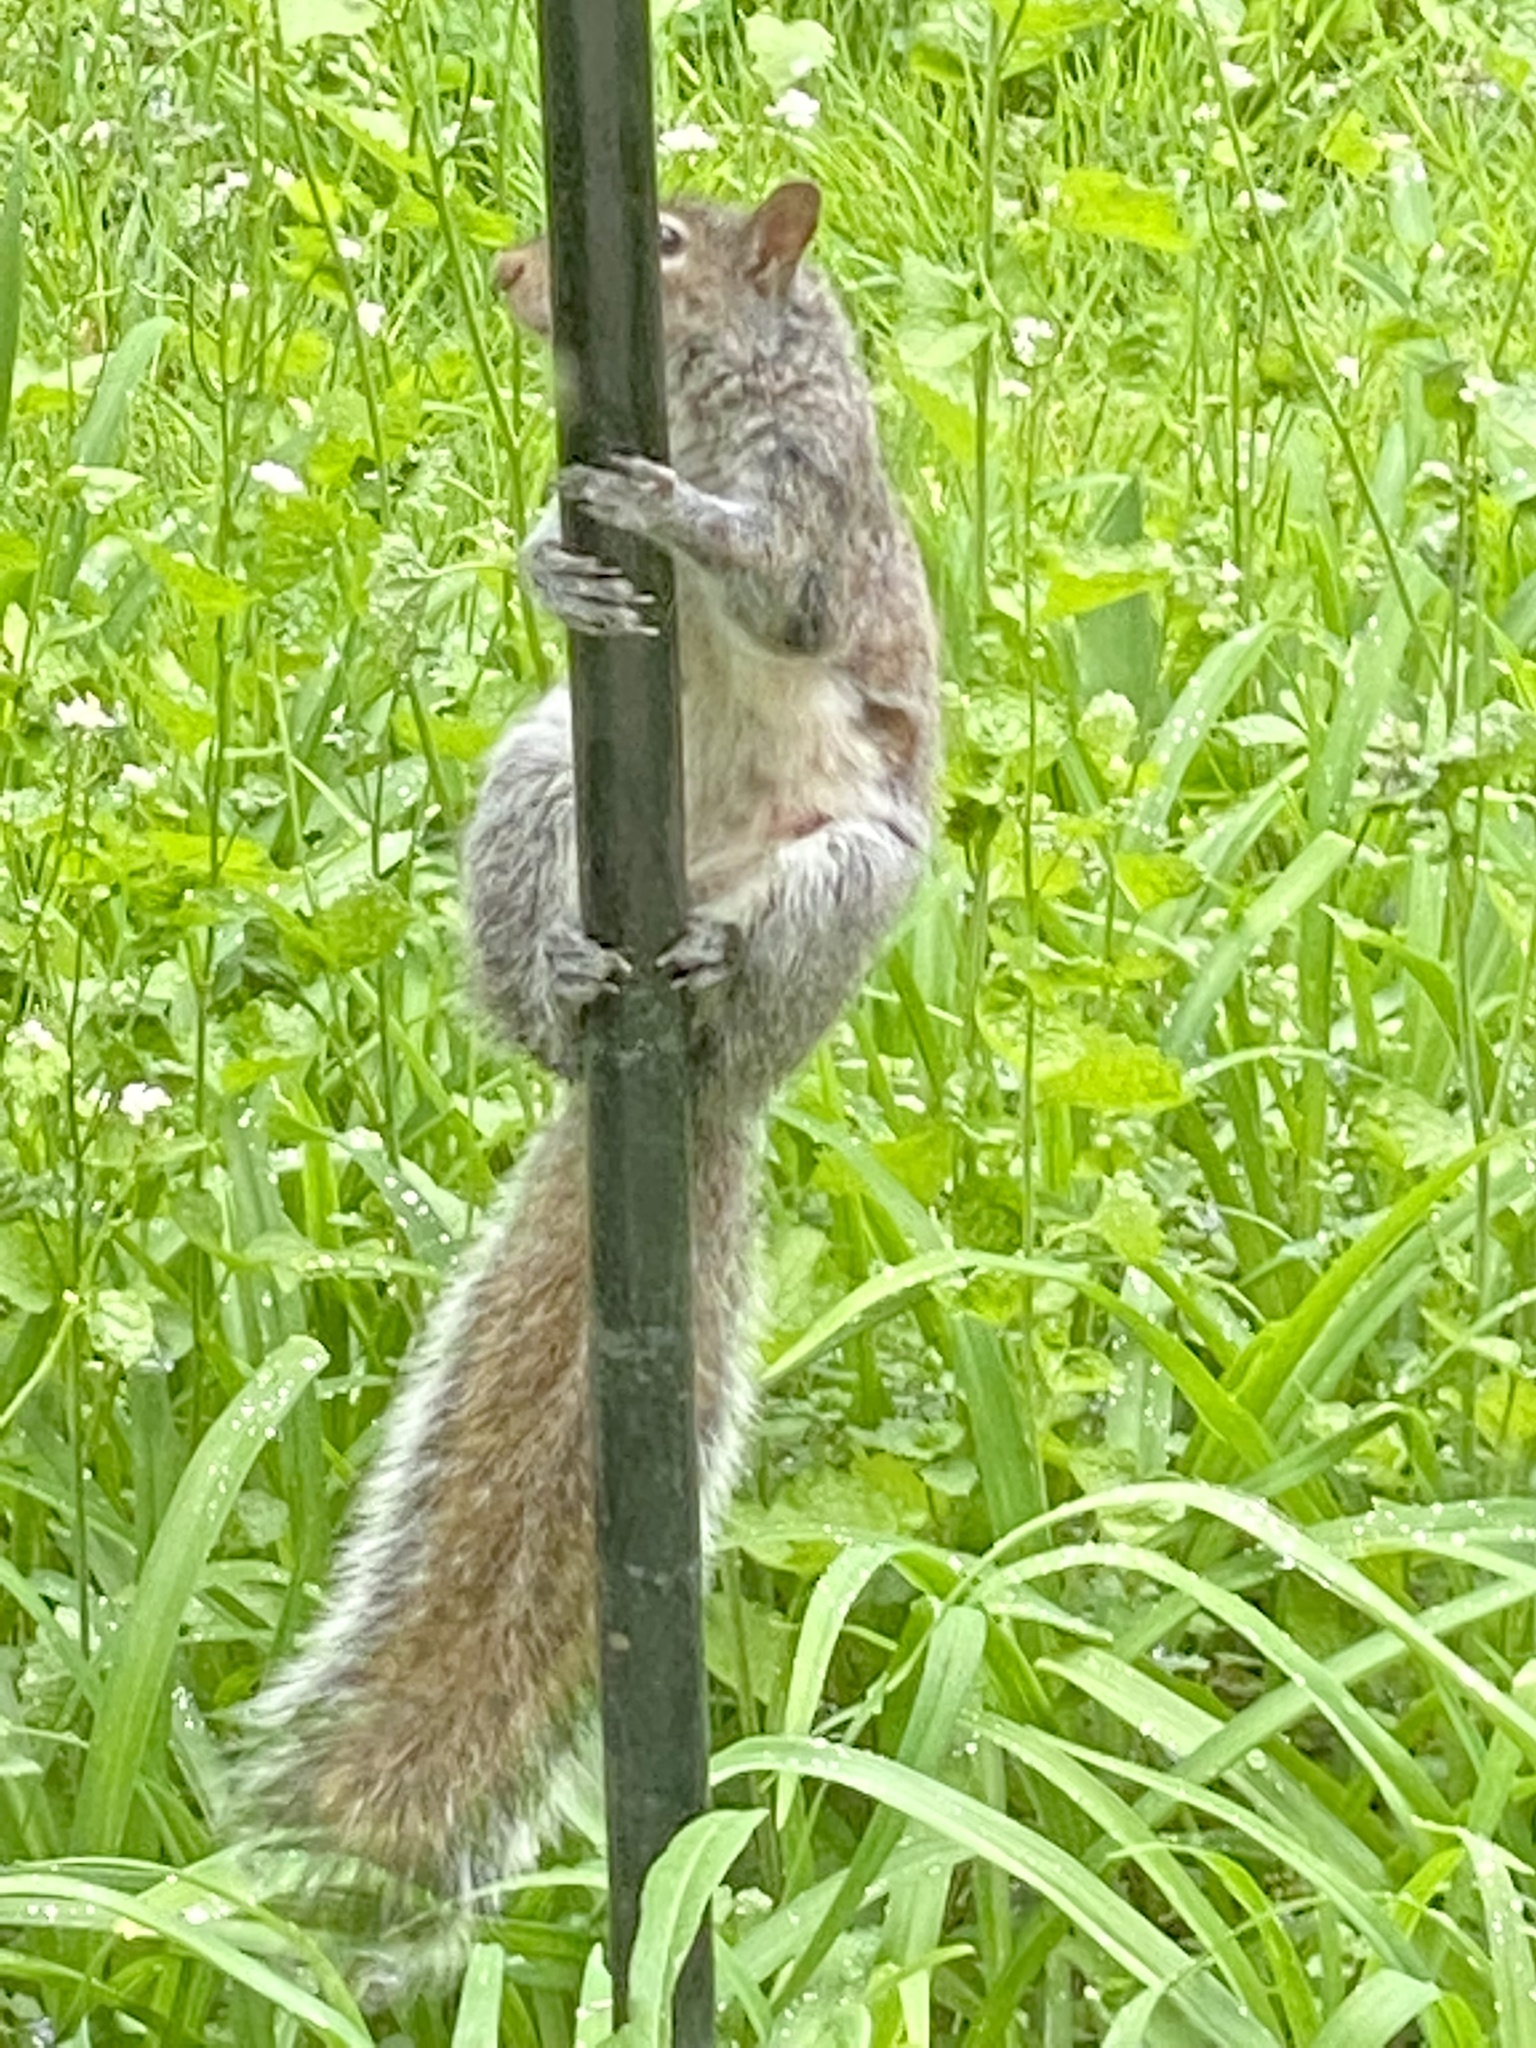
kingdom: Animalia
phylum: Chordata
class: Mammalia
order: Rodentia
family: Sciuridae
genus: Sciurus
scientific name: Sciurus carolinensis
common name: Eastern gray squirrel
